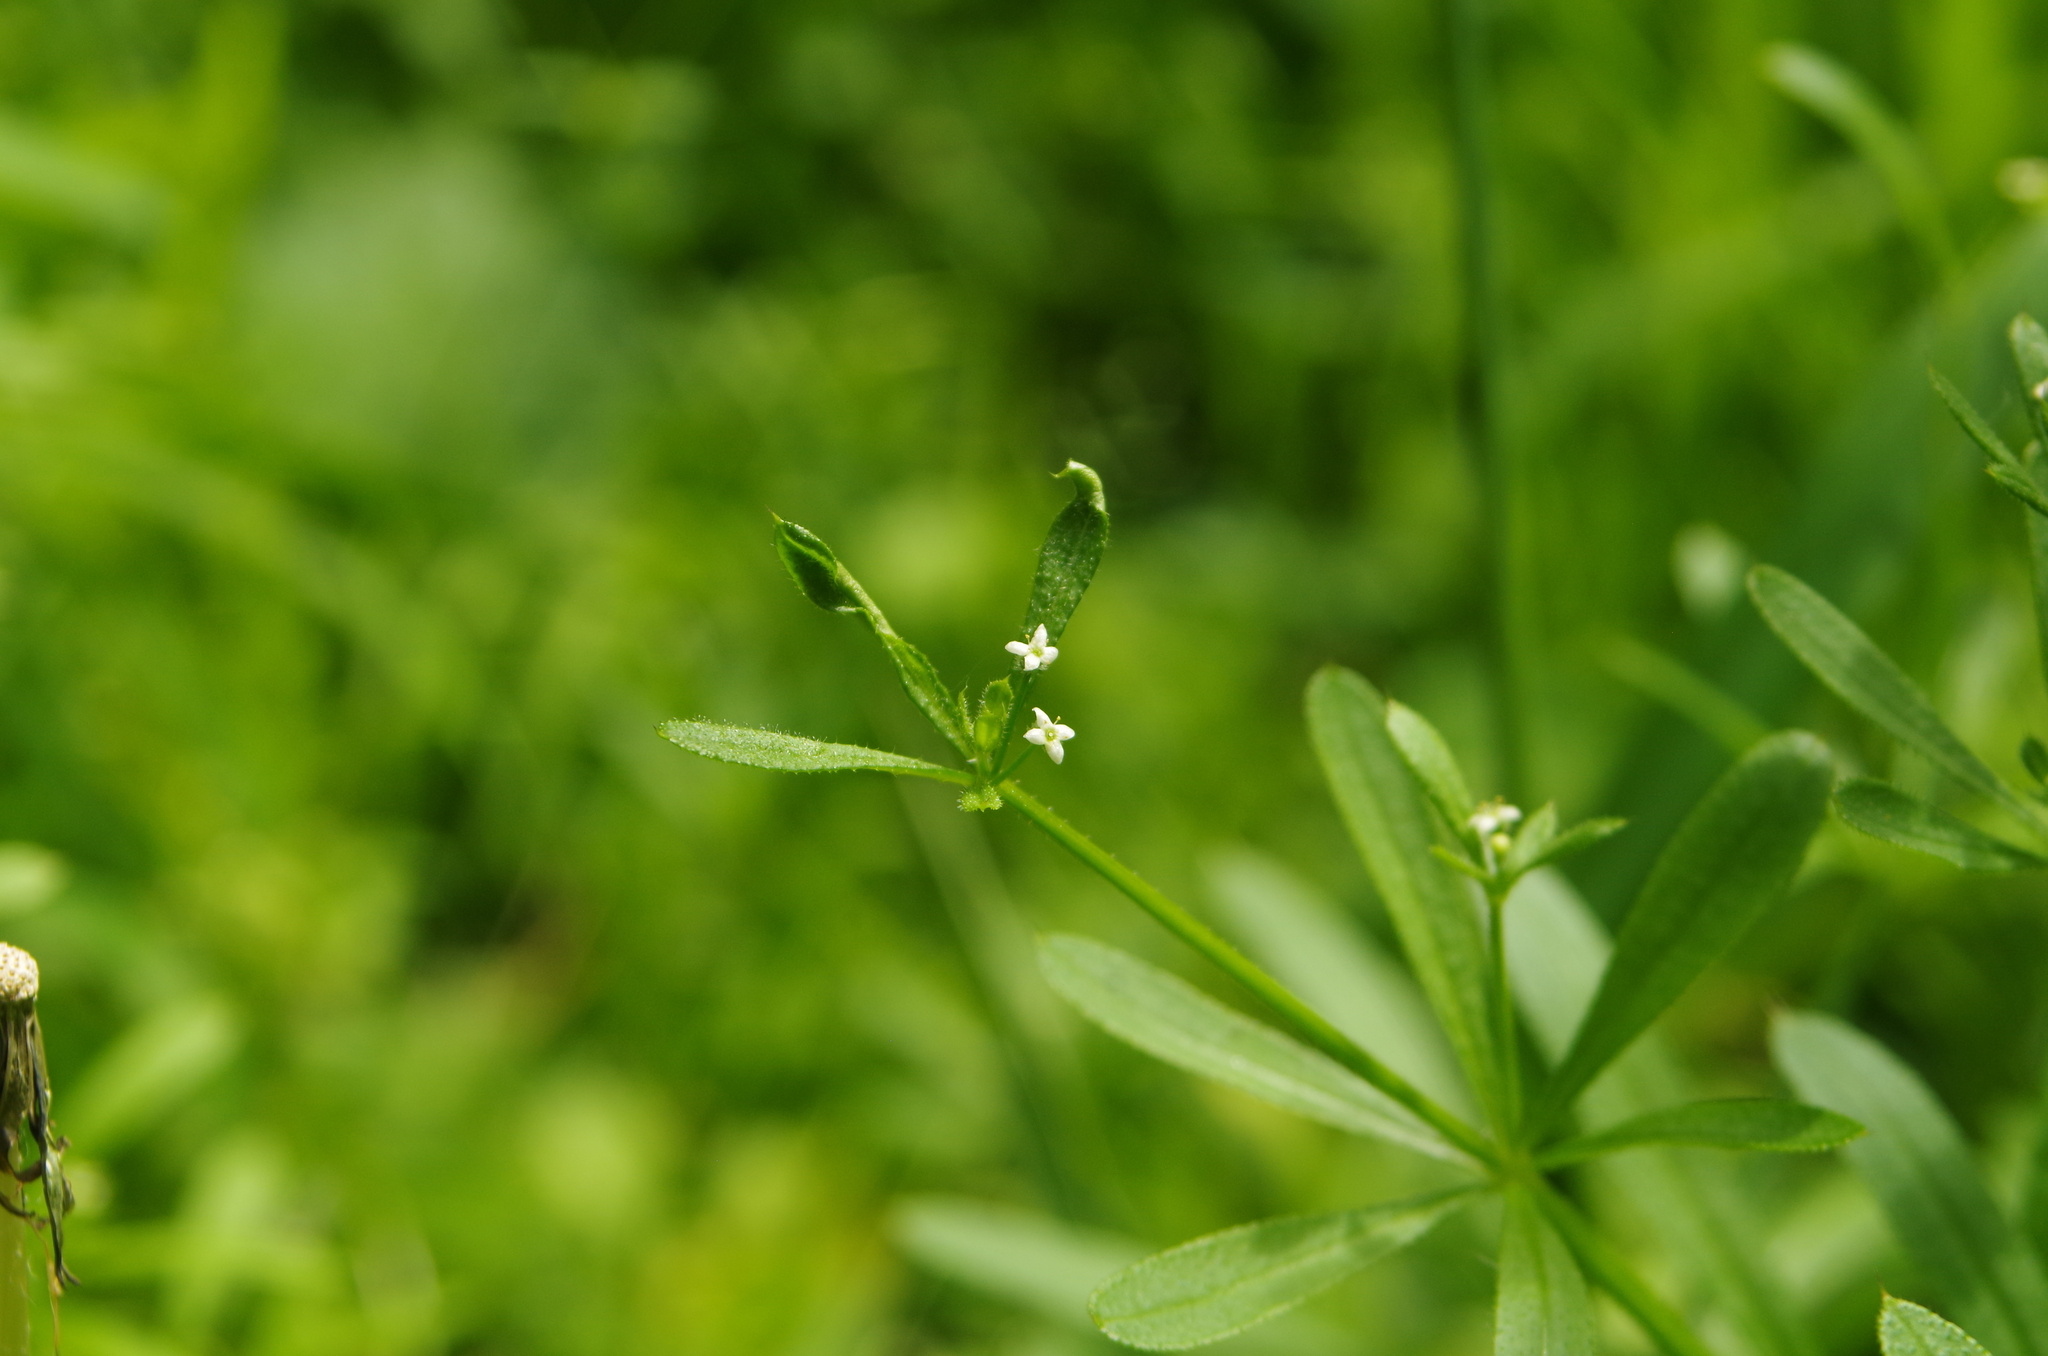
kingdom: Plantae
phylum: Tracheophyta
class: Magnoliopsida
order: Gentianales
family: Rubiaceae
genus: Galium
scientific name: Galium aparine
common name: Cleavers
